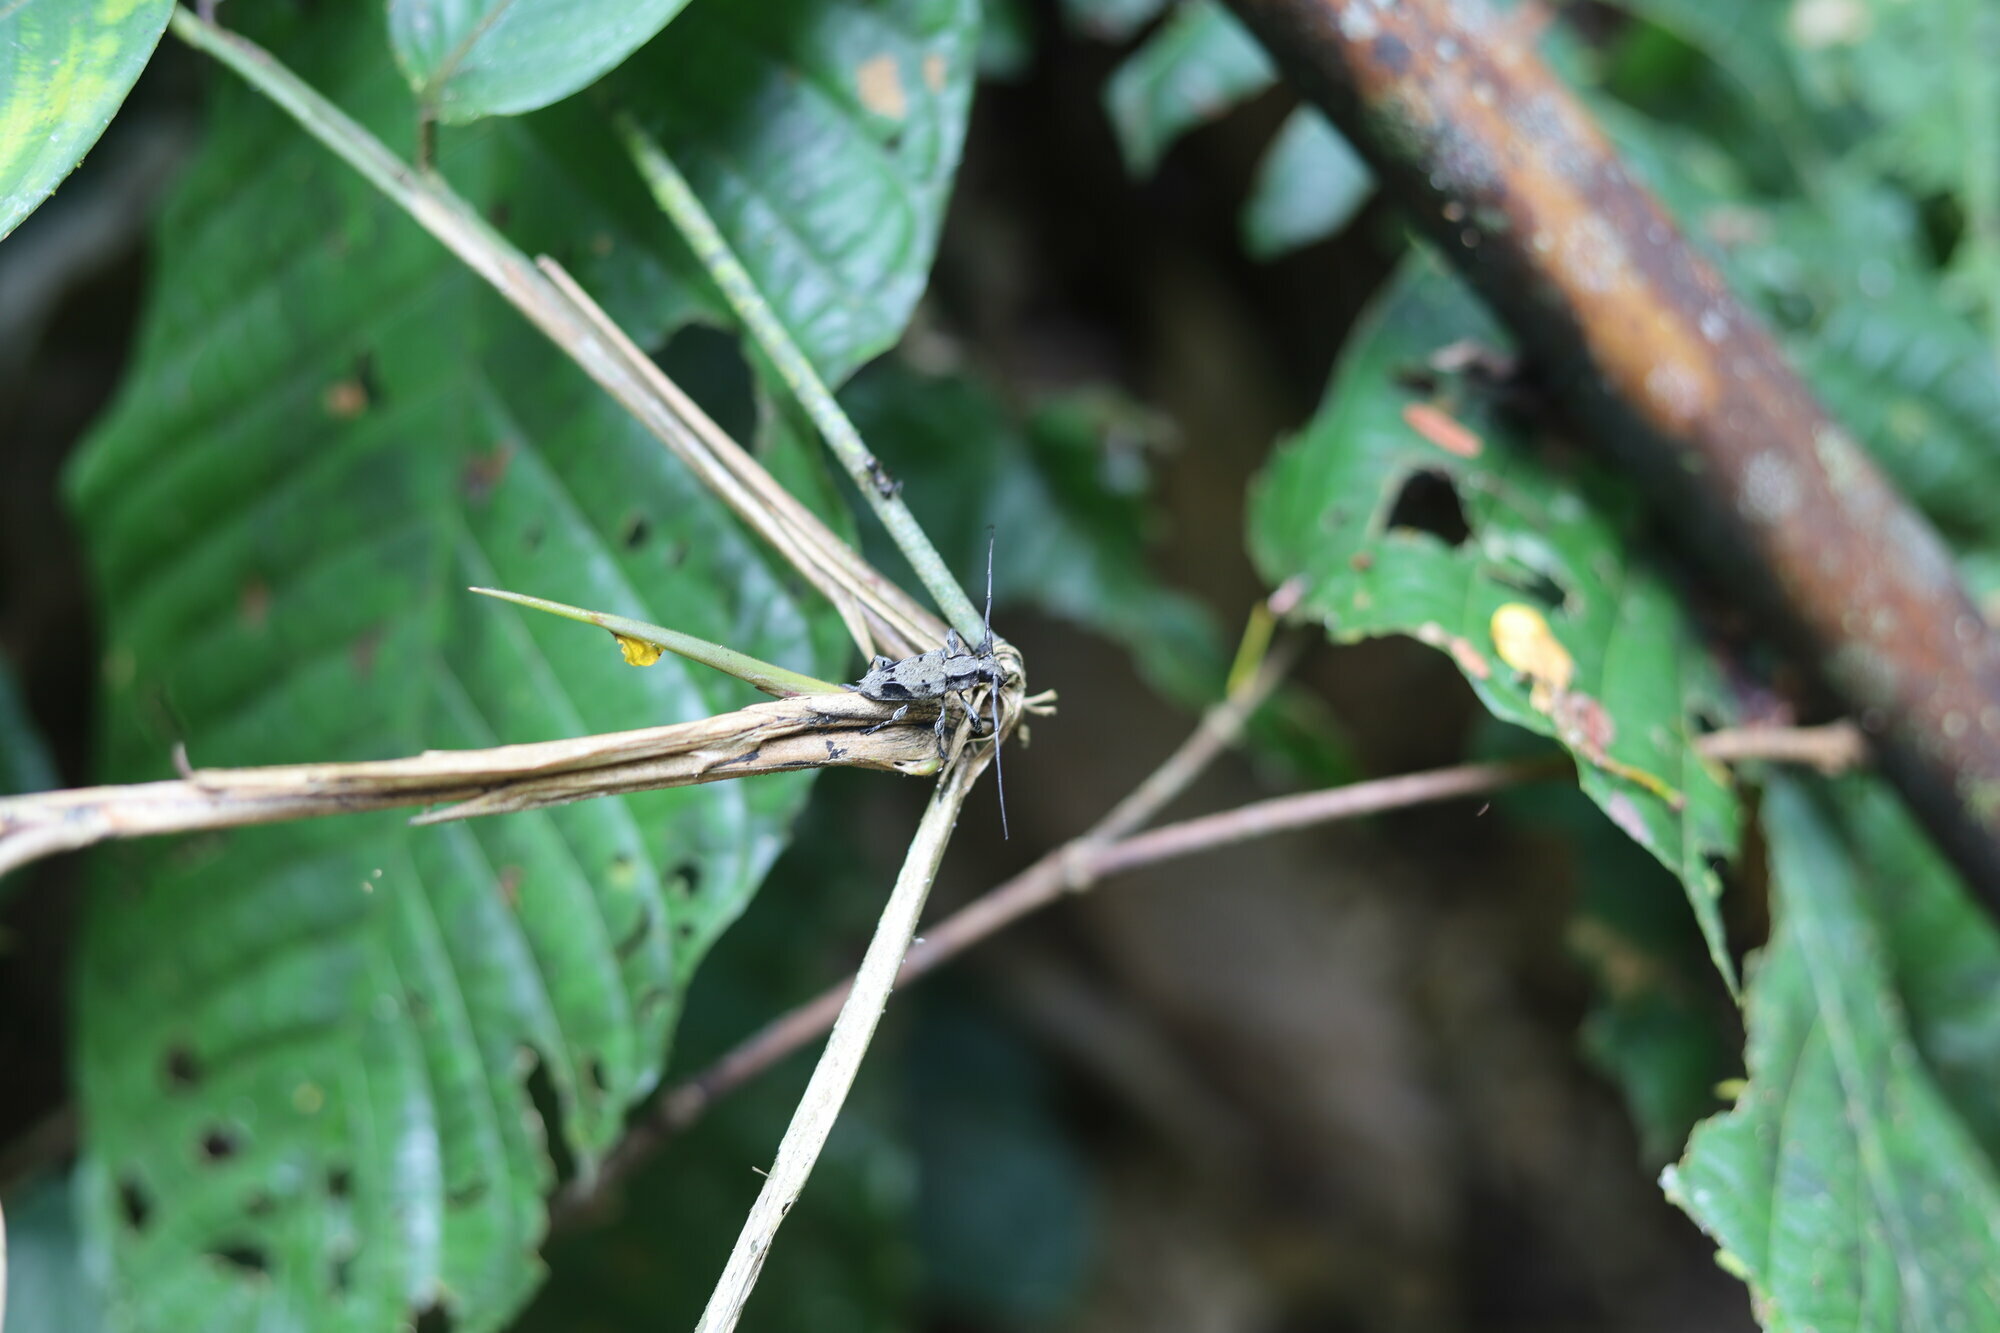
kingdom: Animalia
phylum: Arthropoda
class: Insecta
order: Coleoptera
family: Cerambycidae
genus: Steirastoma
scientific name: Steirastoma aethiops
